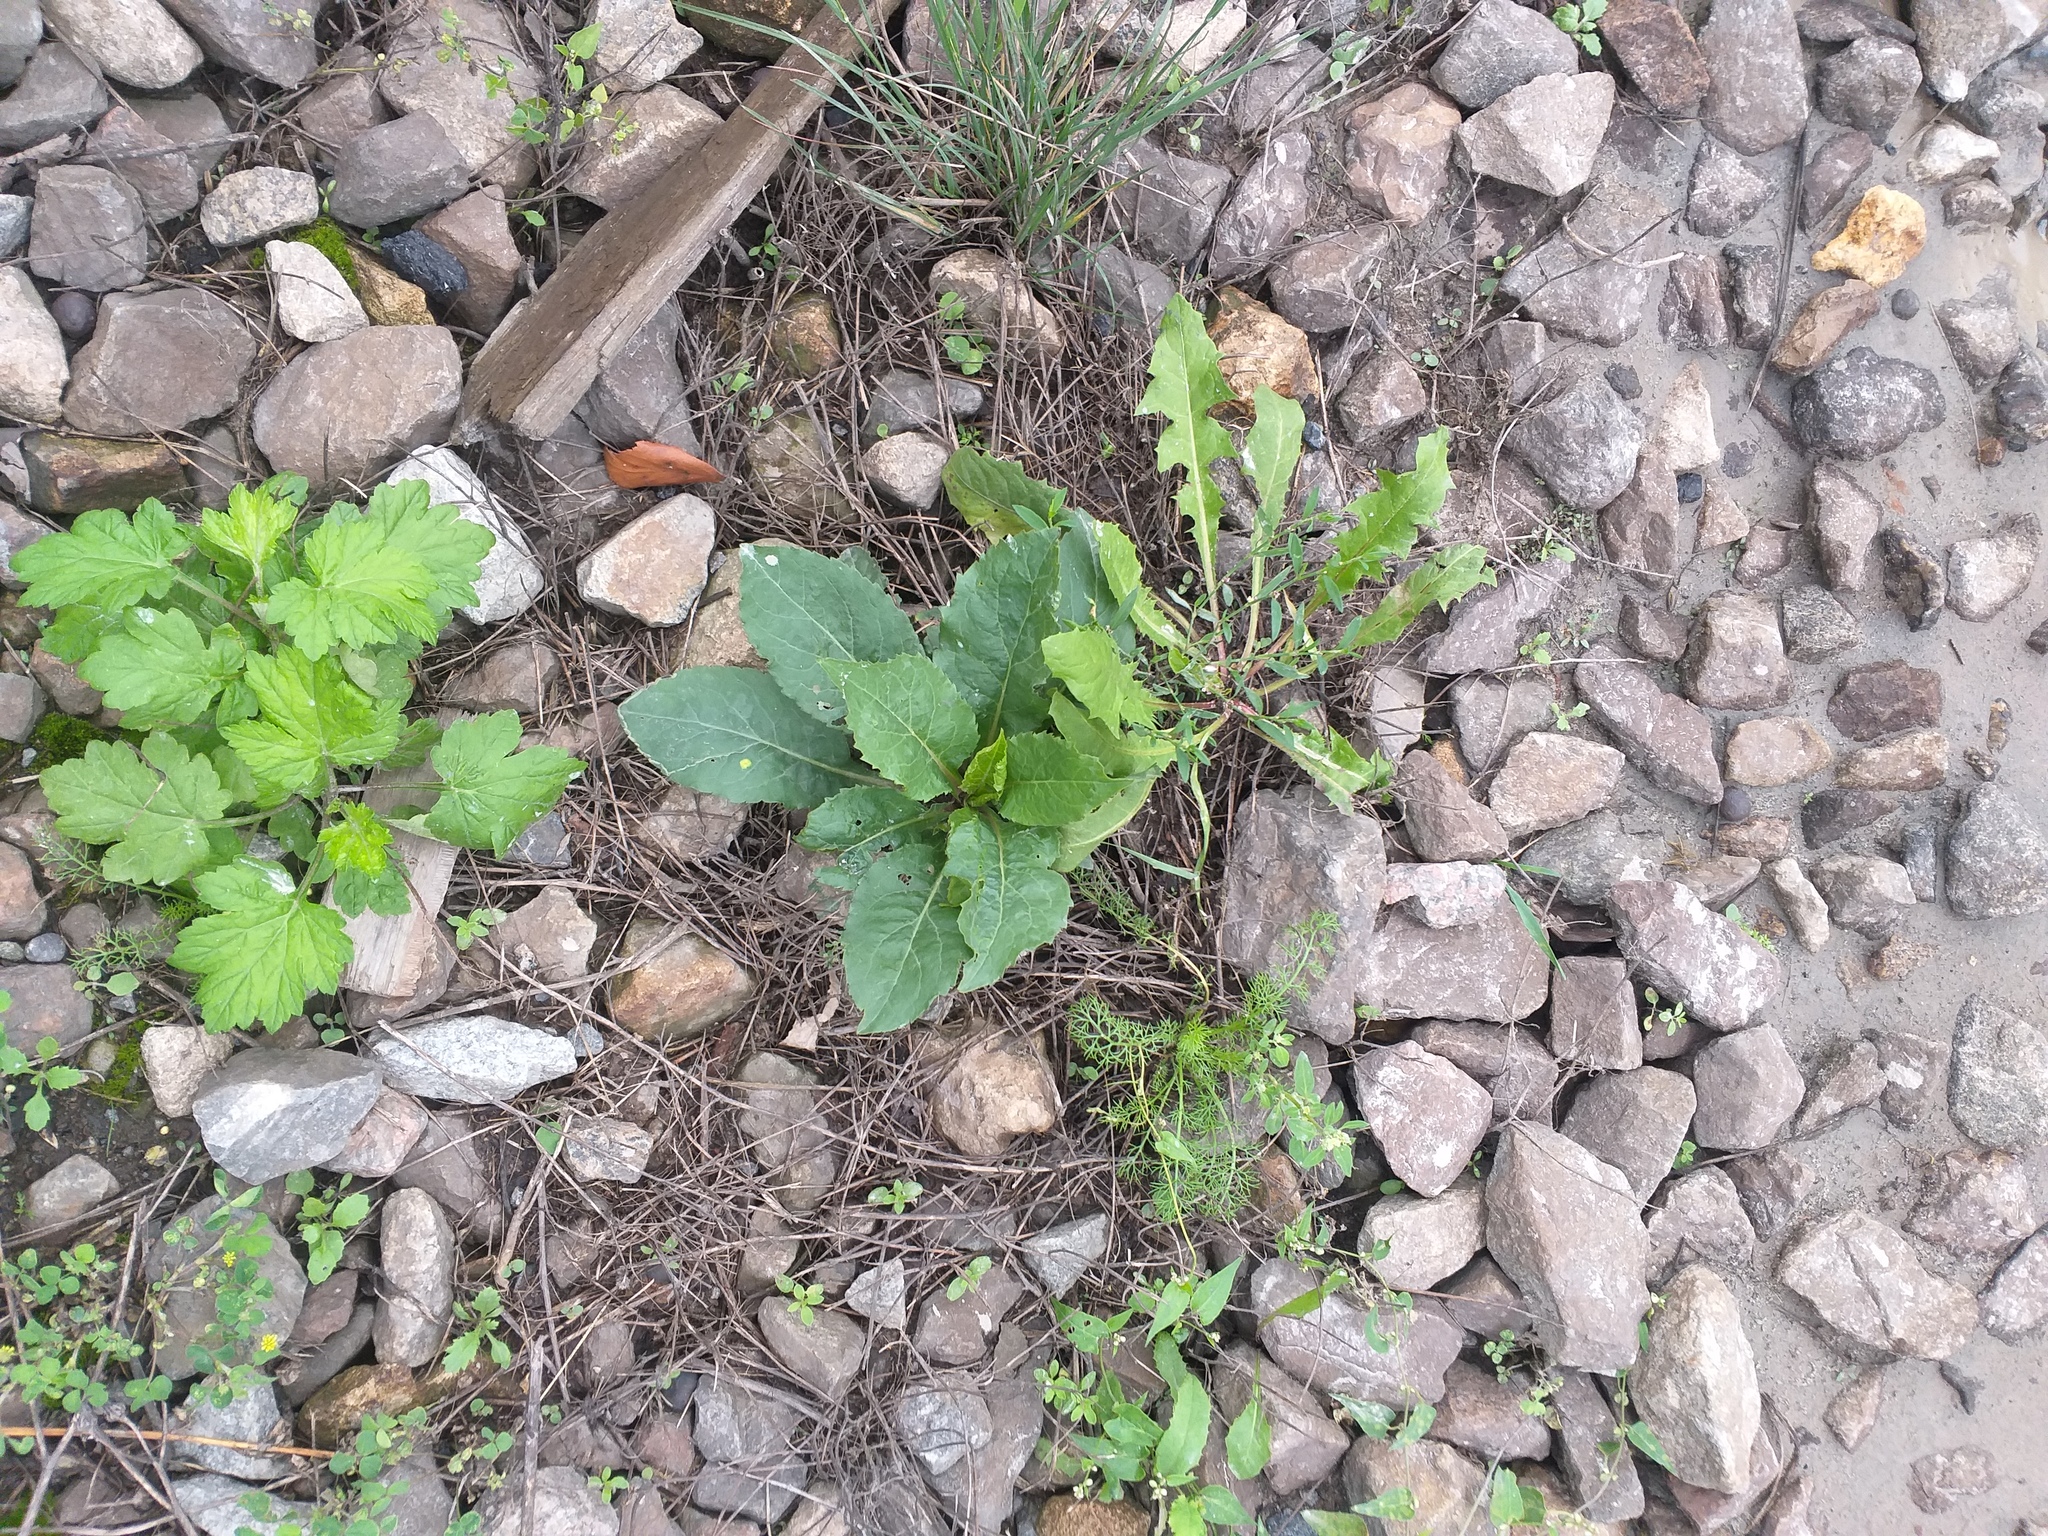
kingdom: Plantae
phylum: Tracheophyta
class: Magnoliopsida
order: Asterales
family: Asteraceae
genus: Solidago
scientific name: Solidago virgaurea
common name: Goldenrod
